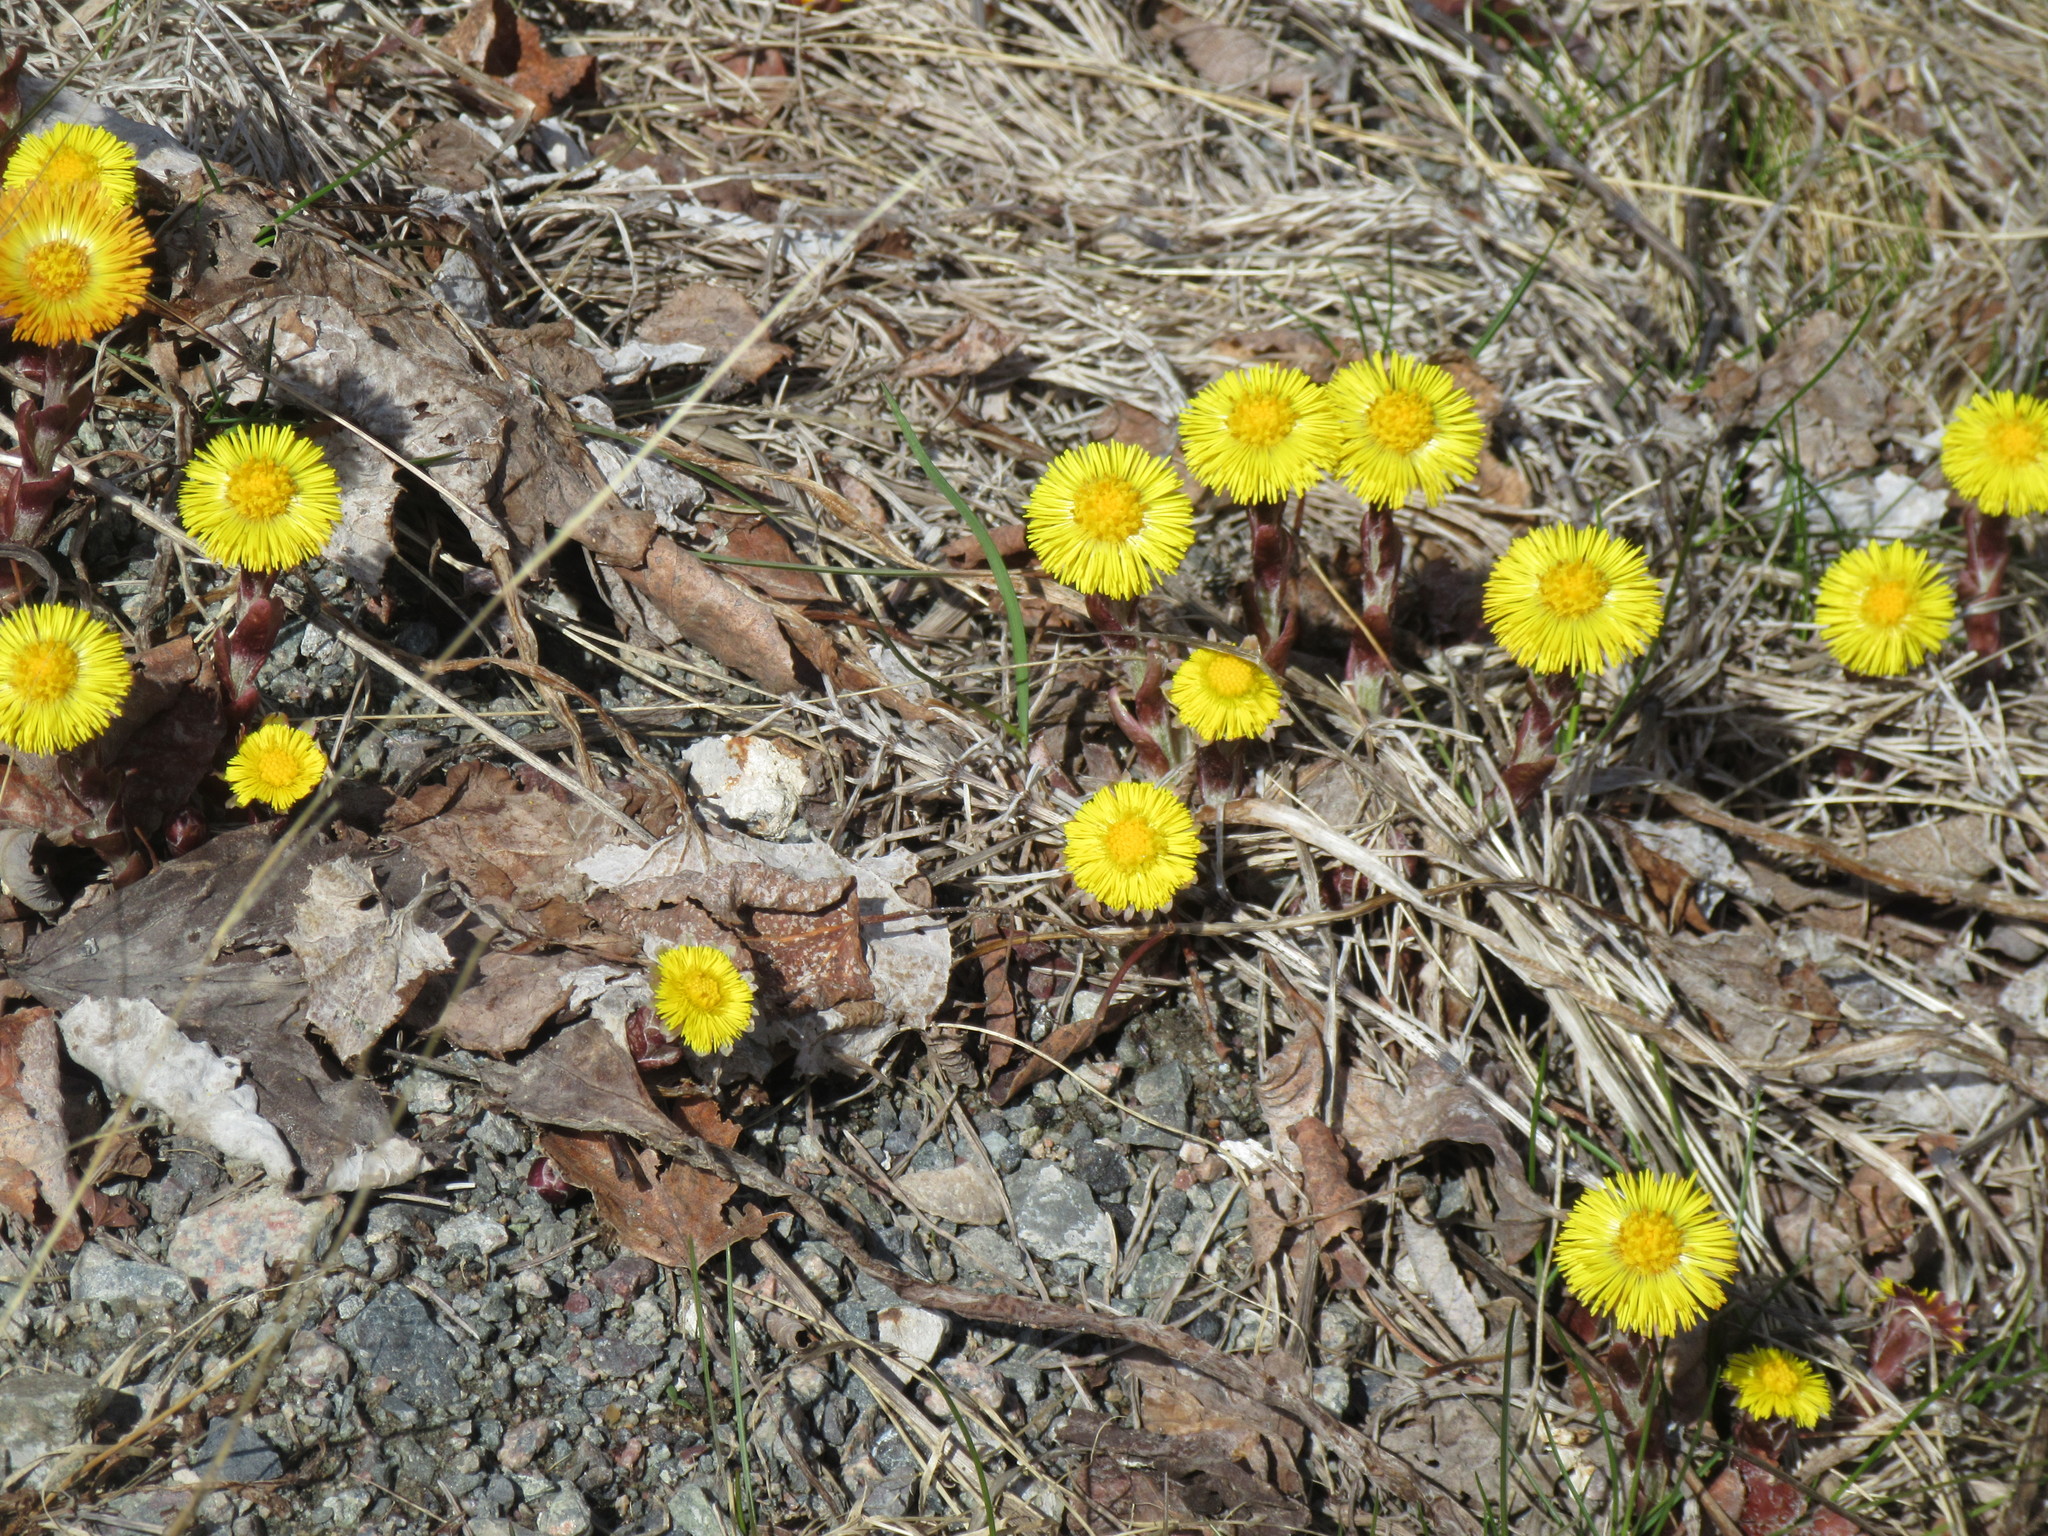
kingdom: Plantae
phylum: Tracheophyta
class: Magnoliopsida
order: Asterales
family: Asteraceae
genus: Tussilago
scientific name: Tussilago farfara
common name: Coltsfoot
